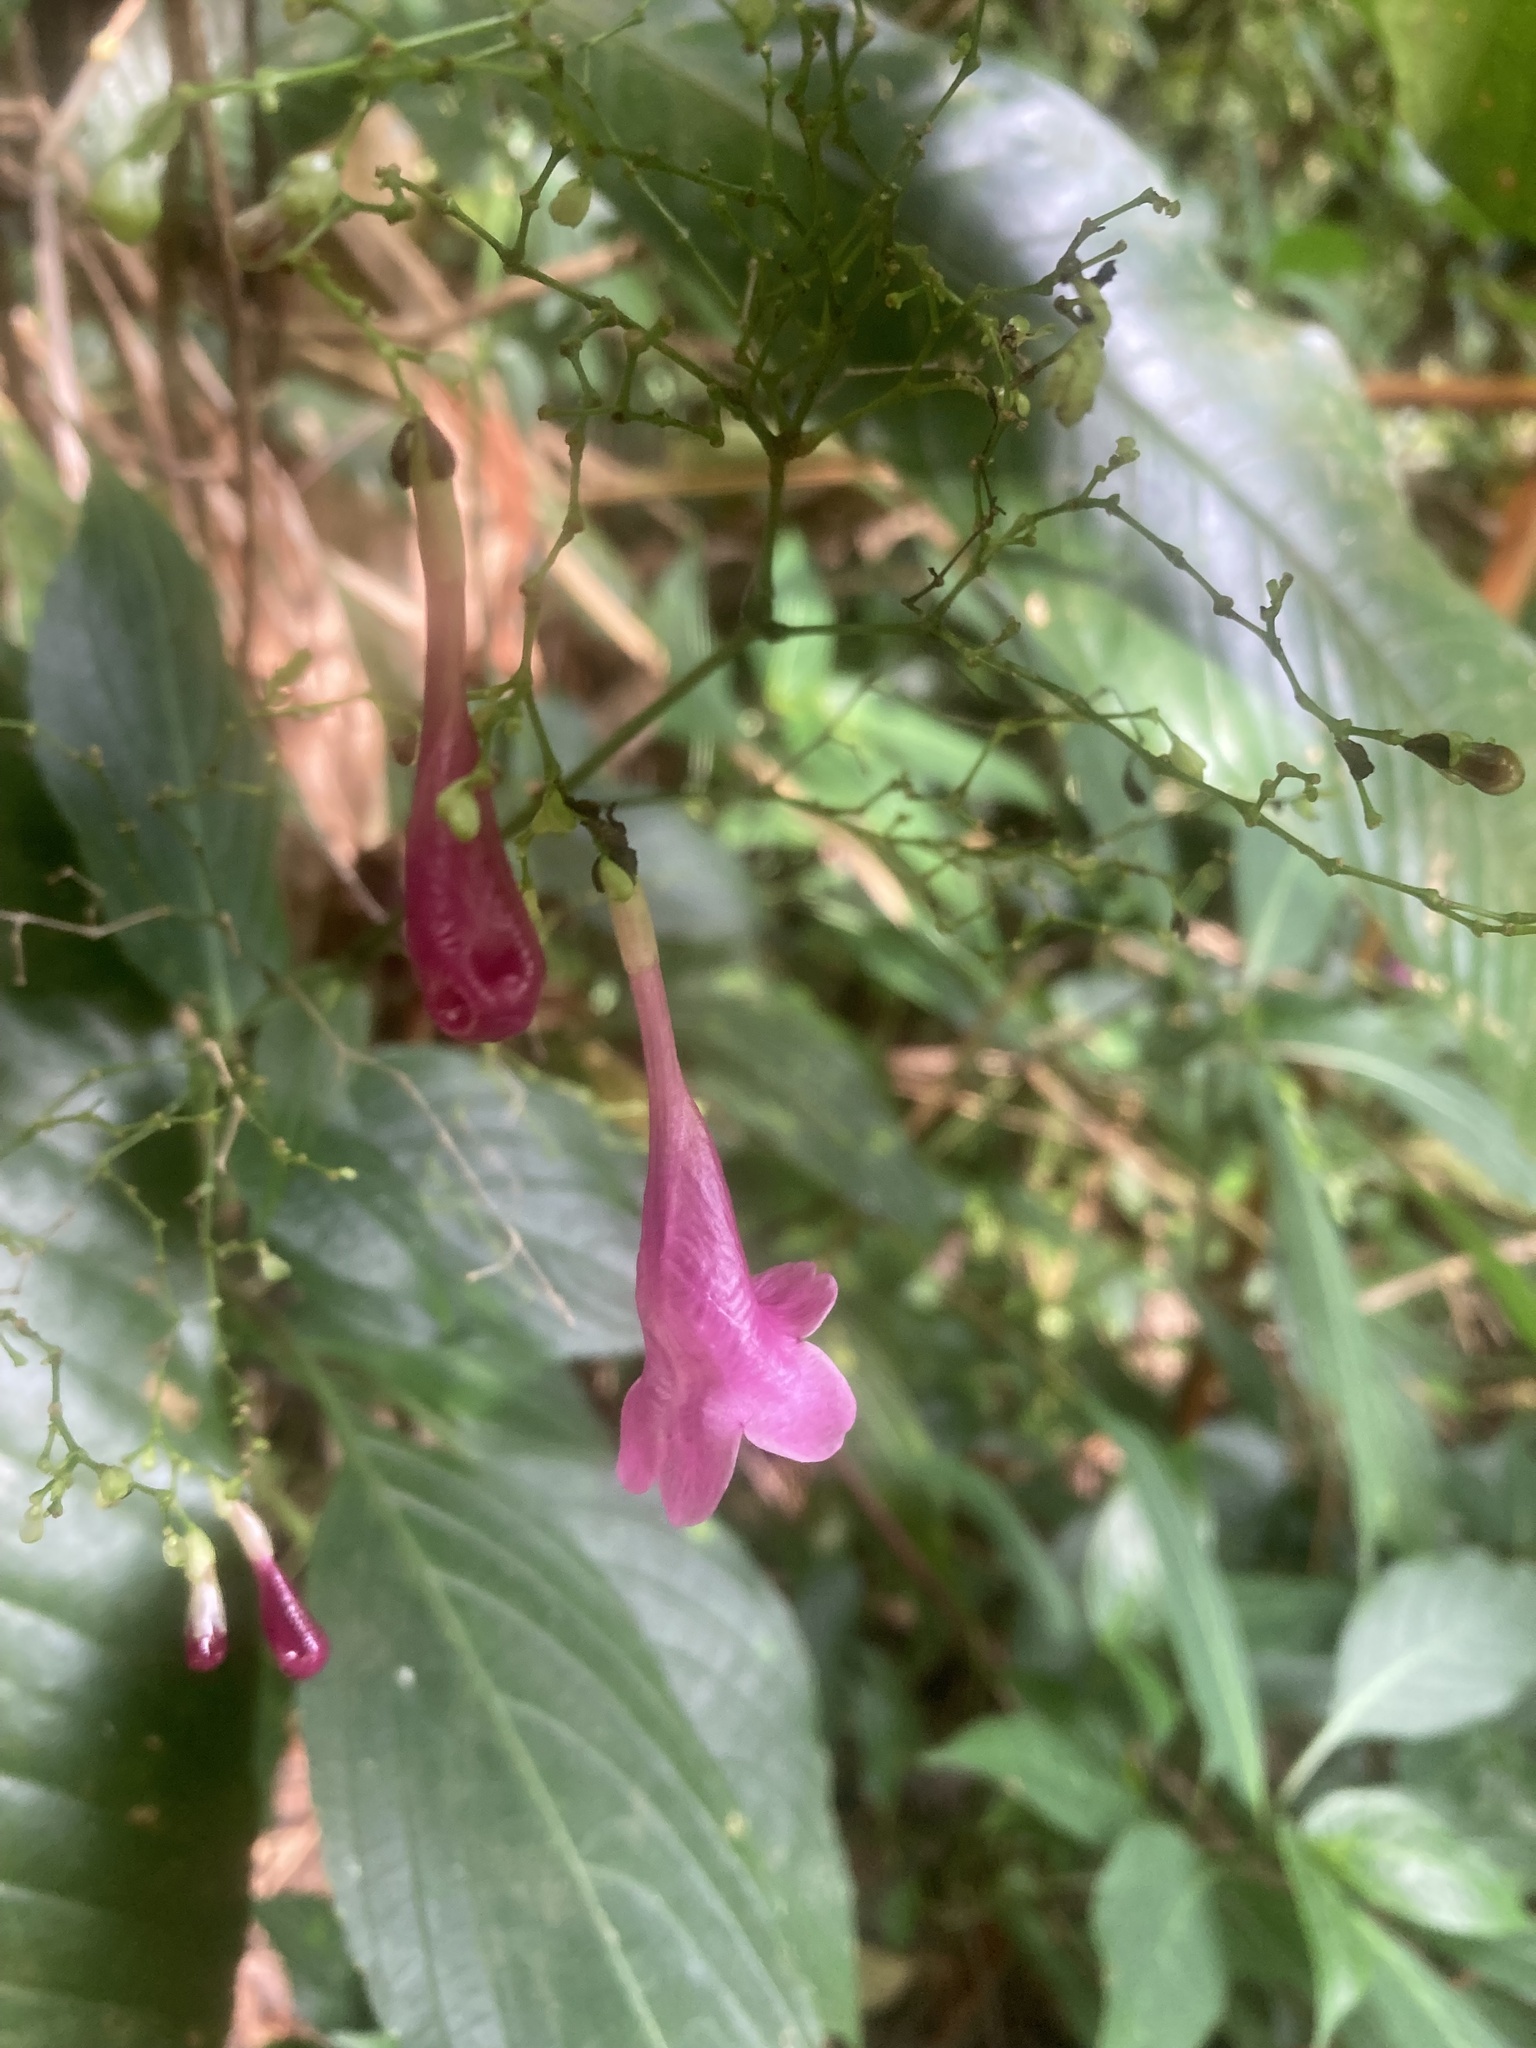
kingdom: Plantae
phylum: Tracheophyta
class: Magnoliopsida
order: Lamiales
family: Acanthaceae
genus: Strobilanthes
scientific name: Strobilanthes hamiltoniana
